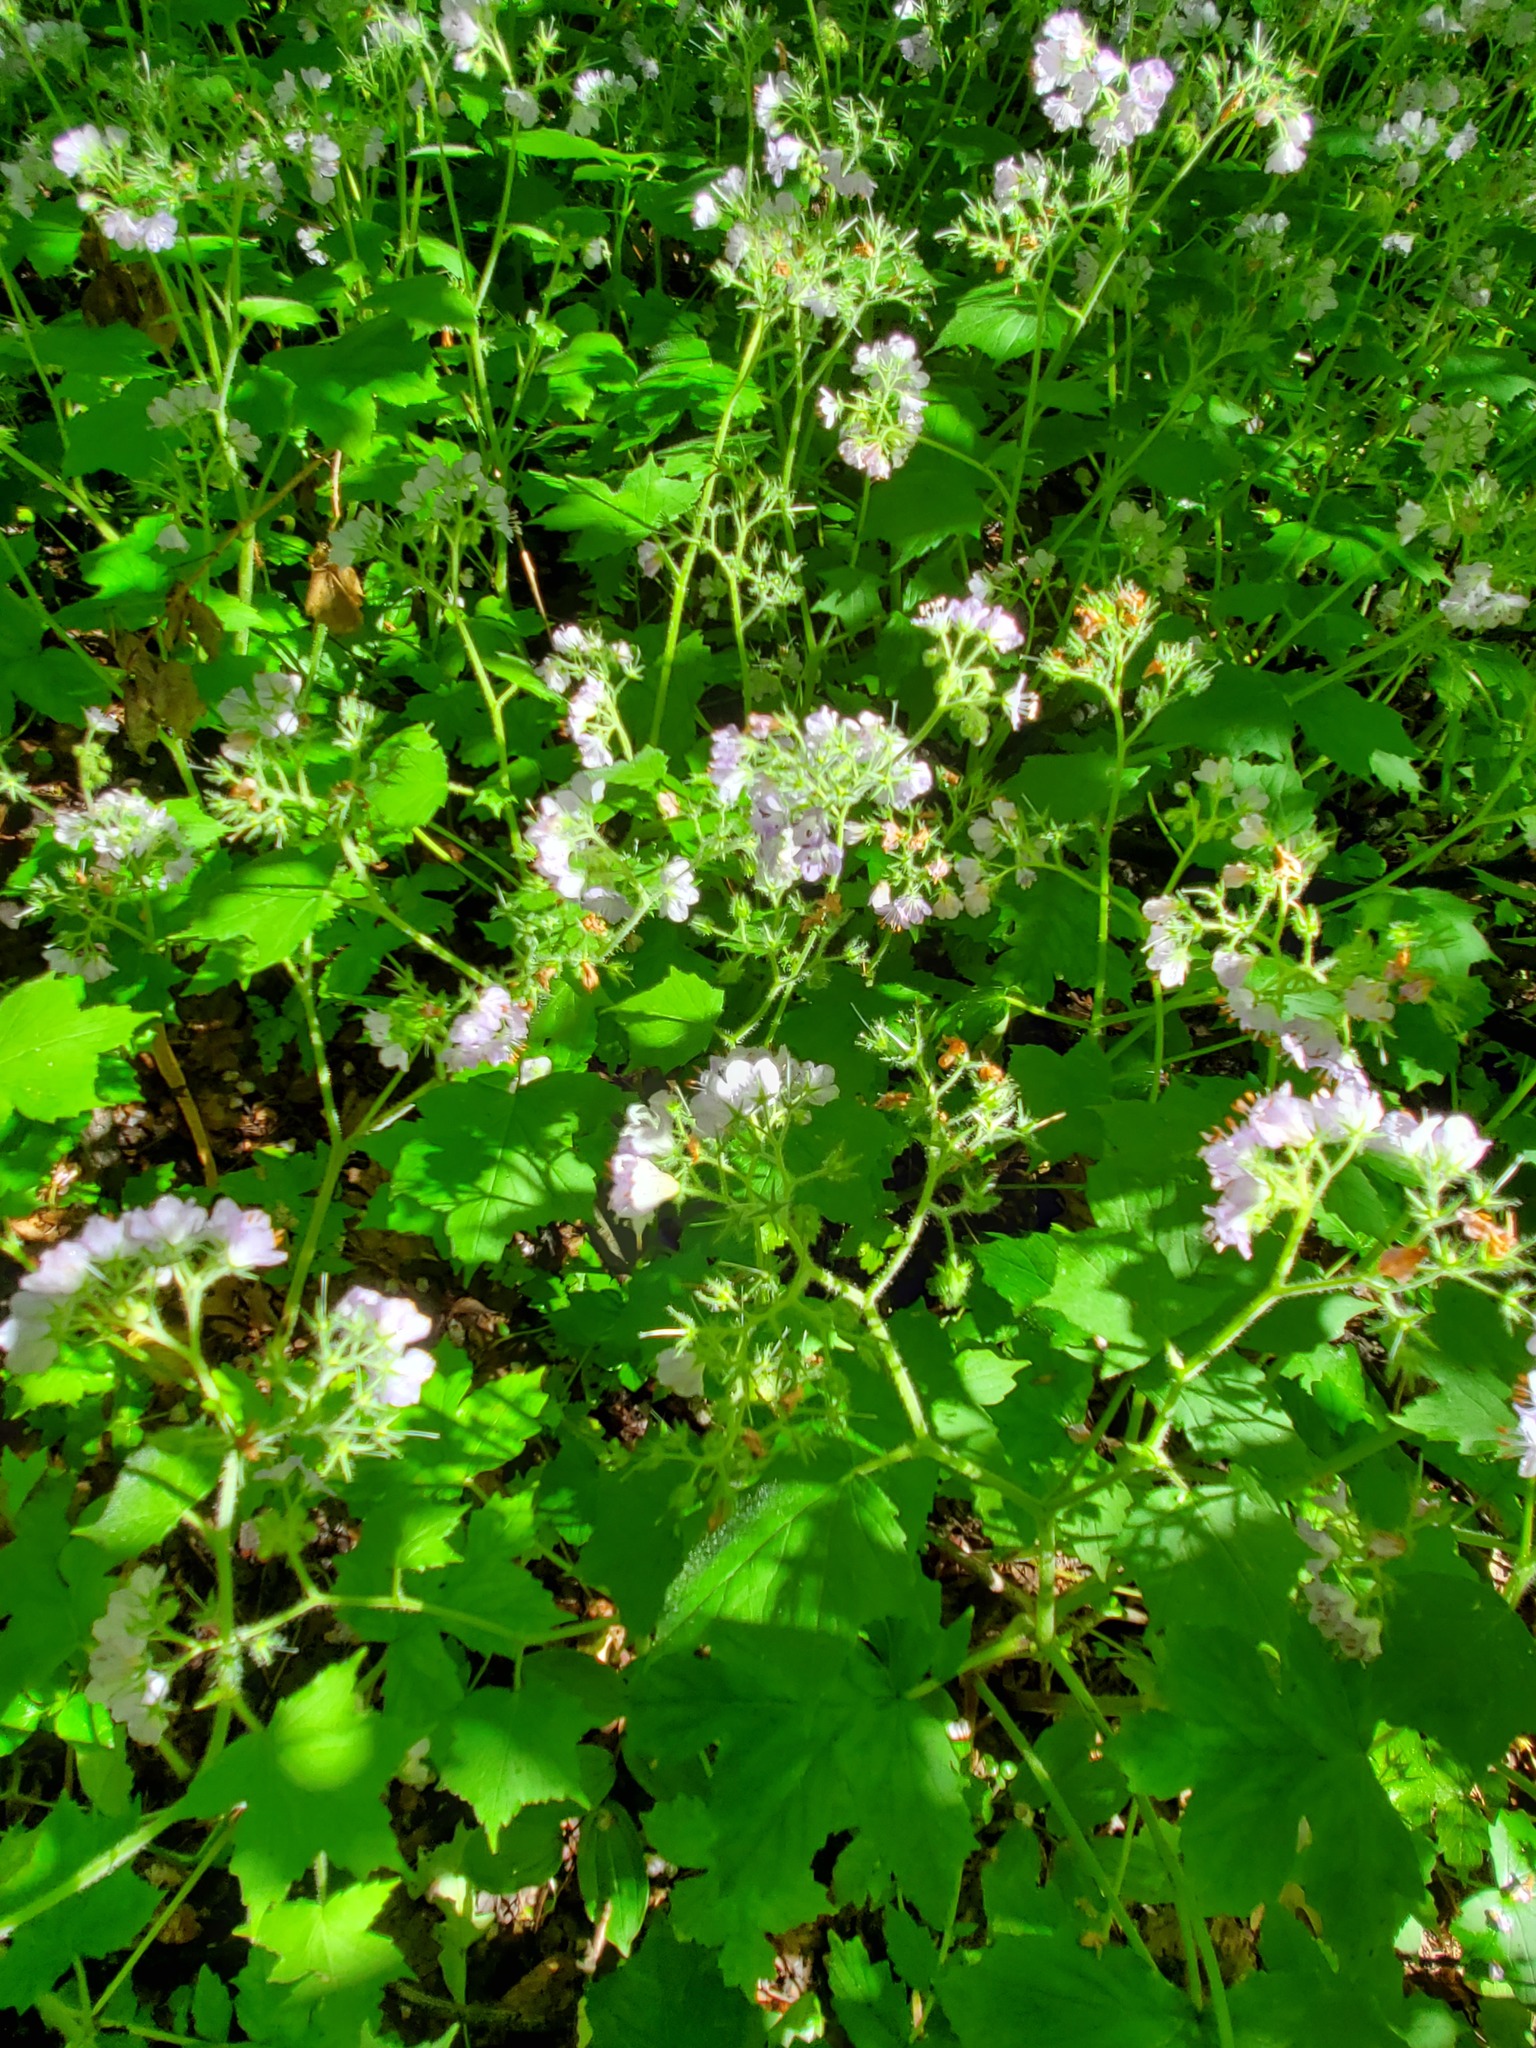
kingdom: Plantae
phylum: Tracheophyta
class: Magnoliopsida
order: Boraginales
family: Hydrophyllaceae
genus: Hydrophyllum
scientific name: Hydrophyllum appendiculatum
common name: Appendaged waterleaf
